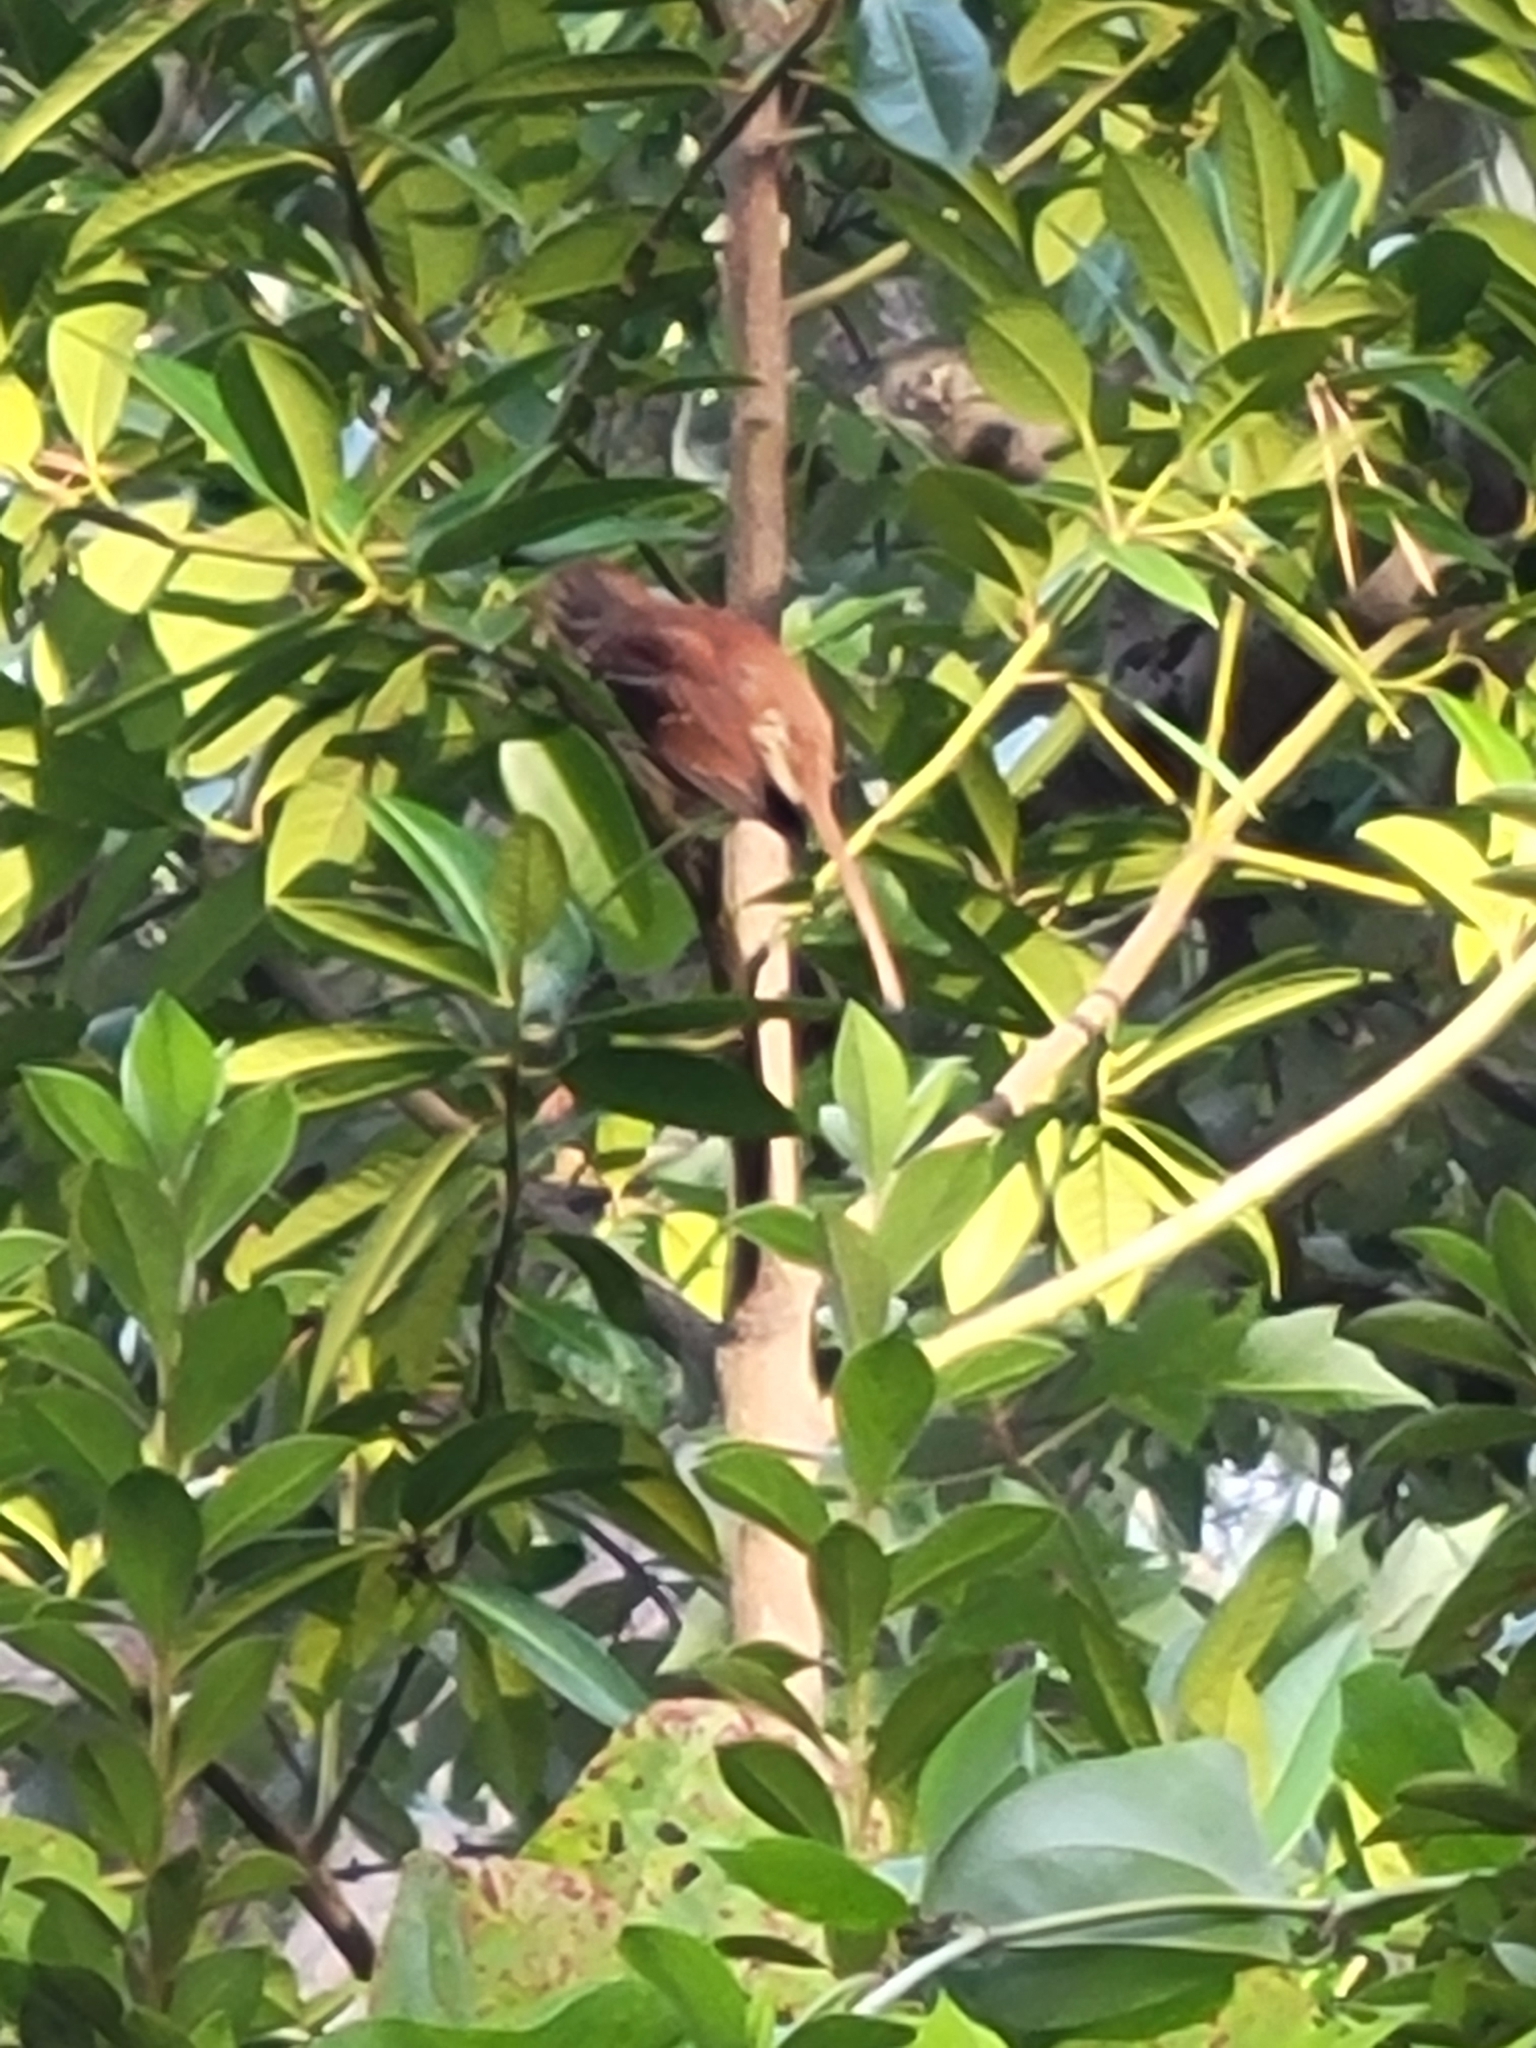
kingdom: Animalia
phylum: Chordata
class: Aves
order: Passeriformes
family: Mimidae
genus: Toxostoma
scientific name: Toxostoma rufum
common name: Brown thrasher
